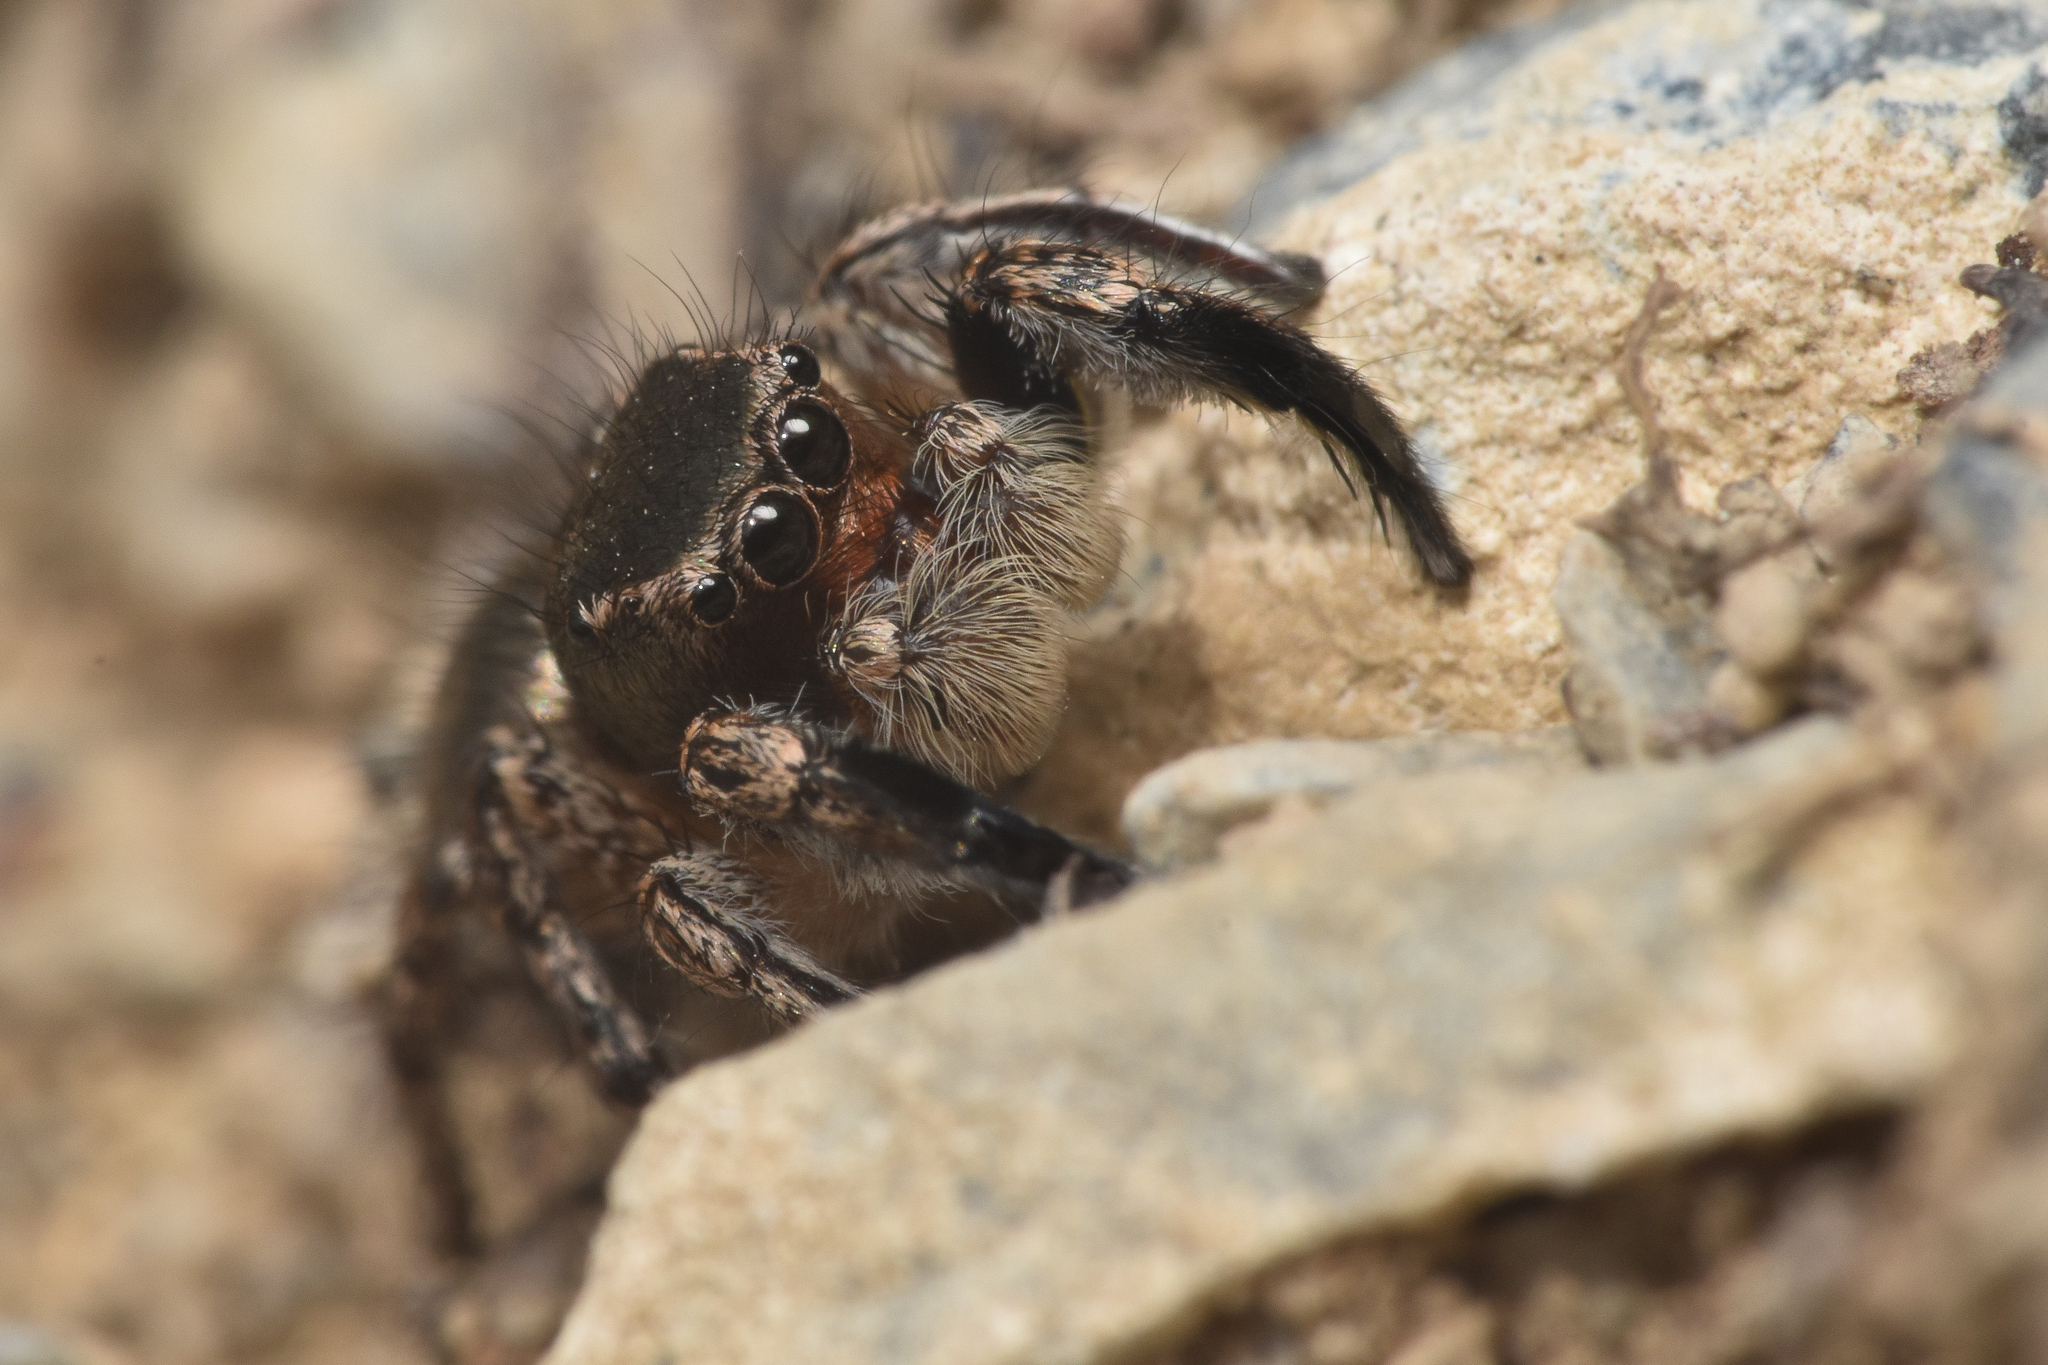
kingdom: Animalia
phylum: Arthropoda
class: Arachnida
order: Araneae
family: Salticidae
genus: Habronattus
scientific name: Habronattus hirsutus
